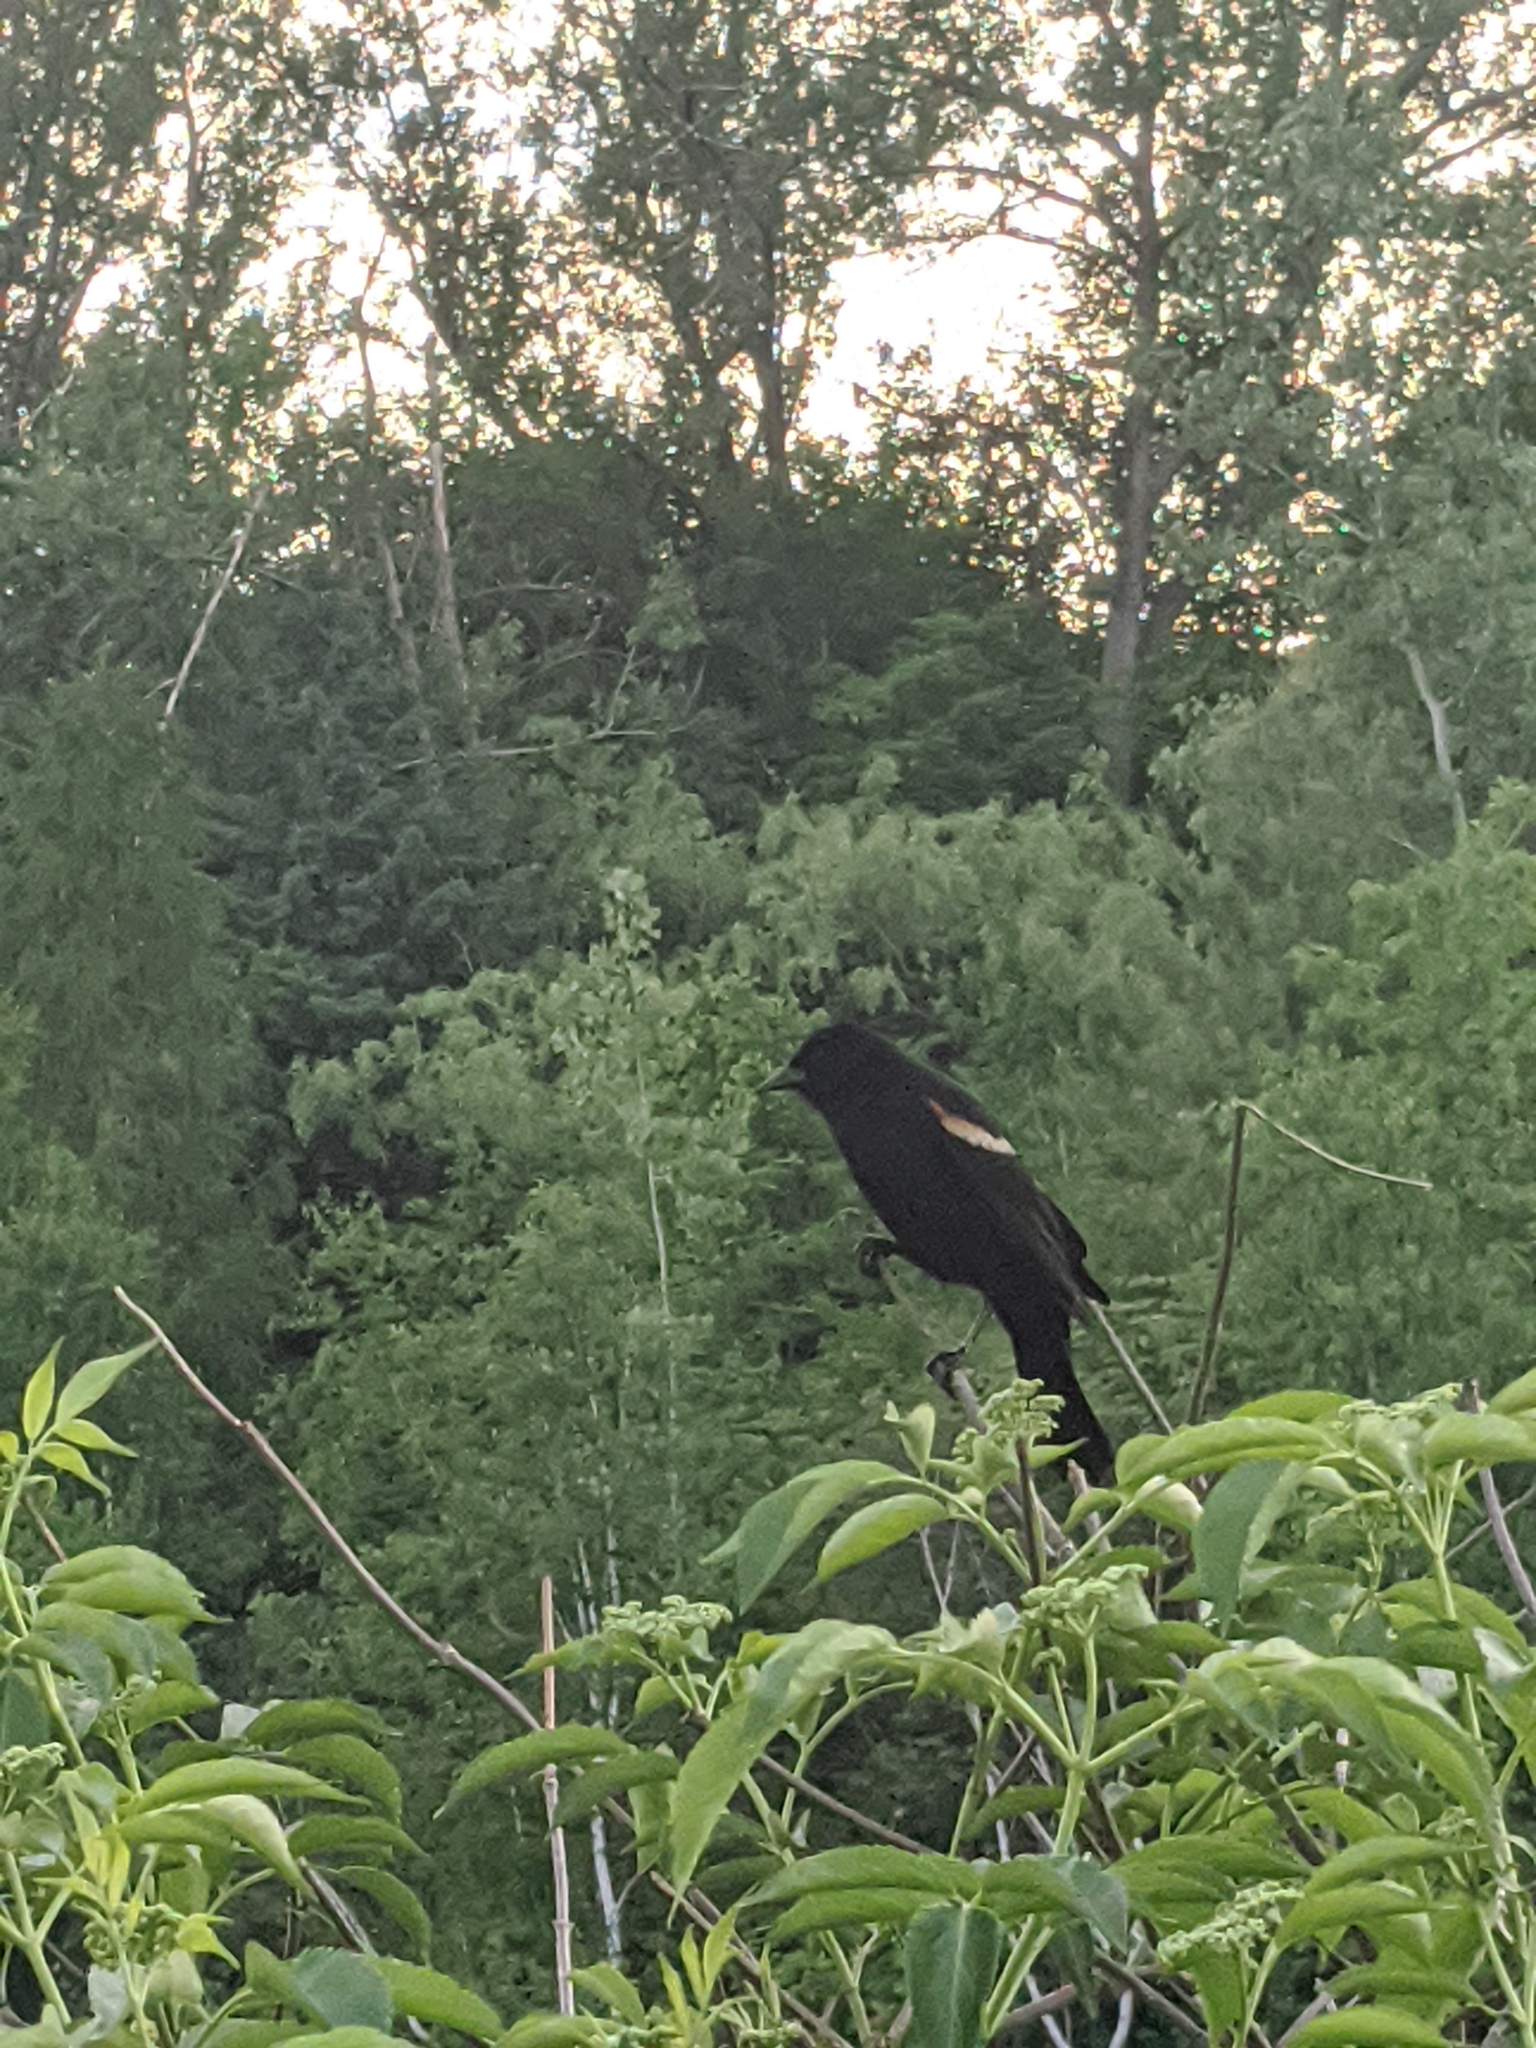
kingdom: Animalia
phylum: Chordata
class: Aves
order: Passeriformes
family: Icteridae
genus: Agelaius
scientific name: Agelaius phoeniceus
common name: Red-winged blackbird
